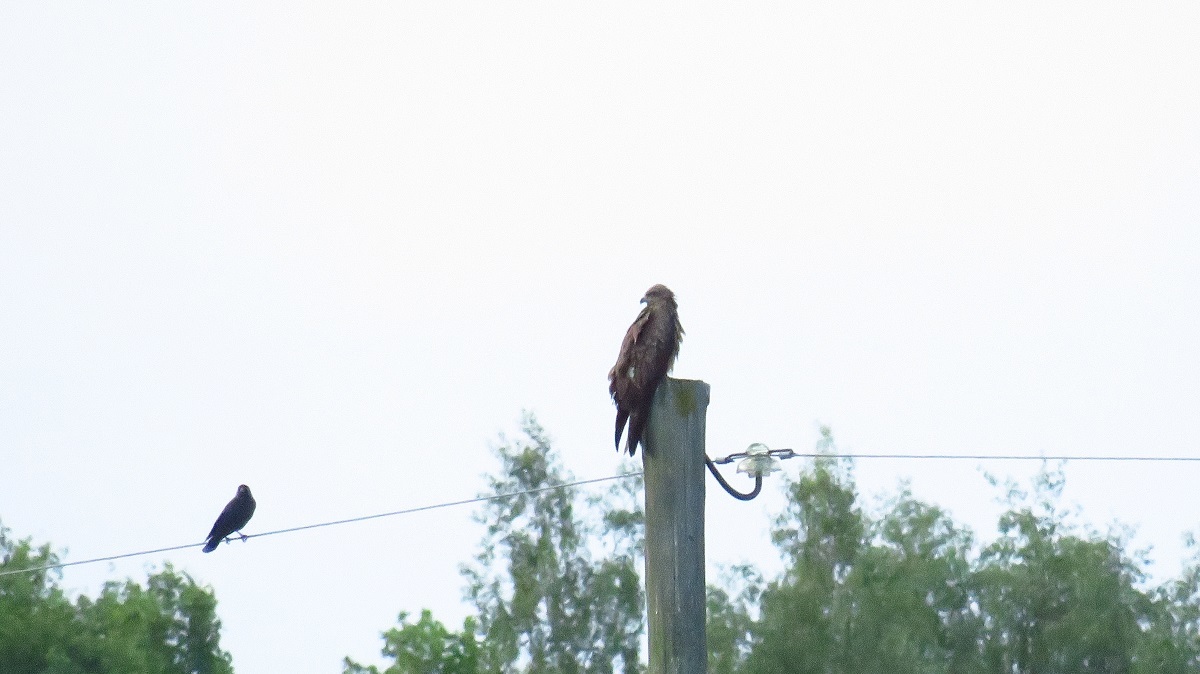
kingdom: Animalia
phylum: Chordata
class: Aves
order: Accipitriformes
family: Accipitridae
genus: Milvus
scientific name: Milvus migrans
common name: Black kite
